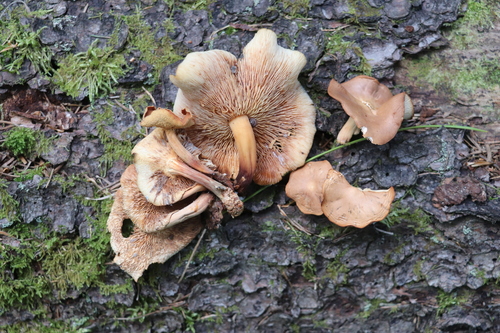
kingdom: Fungi
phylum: Basidiomycota
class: Agaricomycetes
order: Agaricales
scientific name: Agaricales
